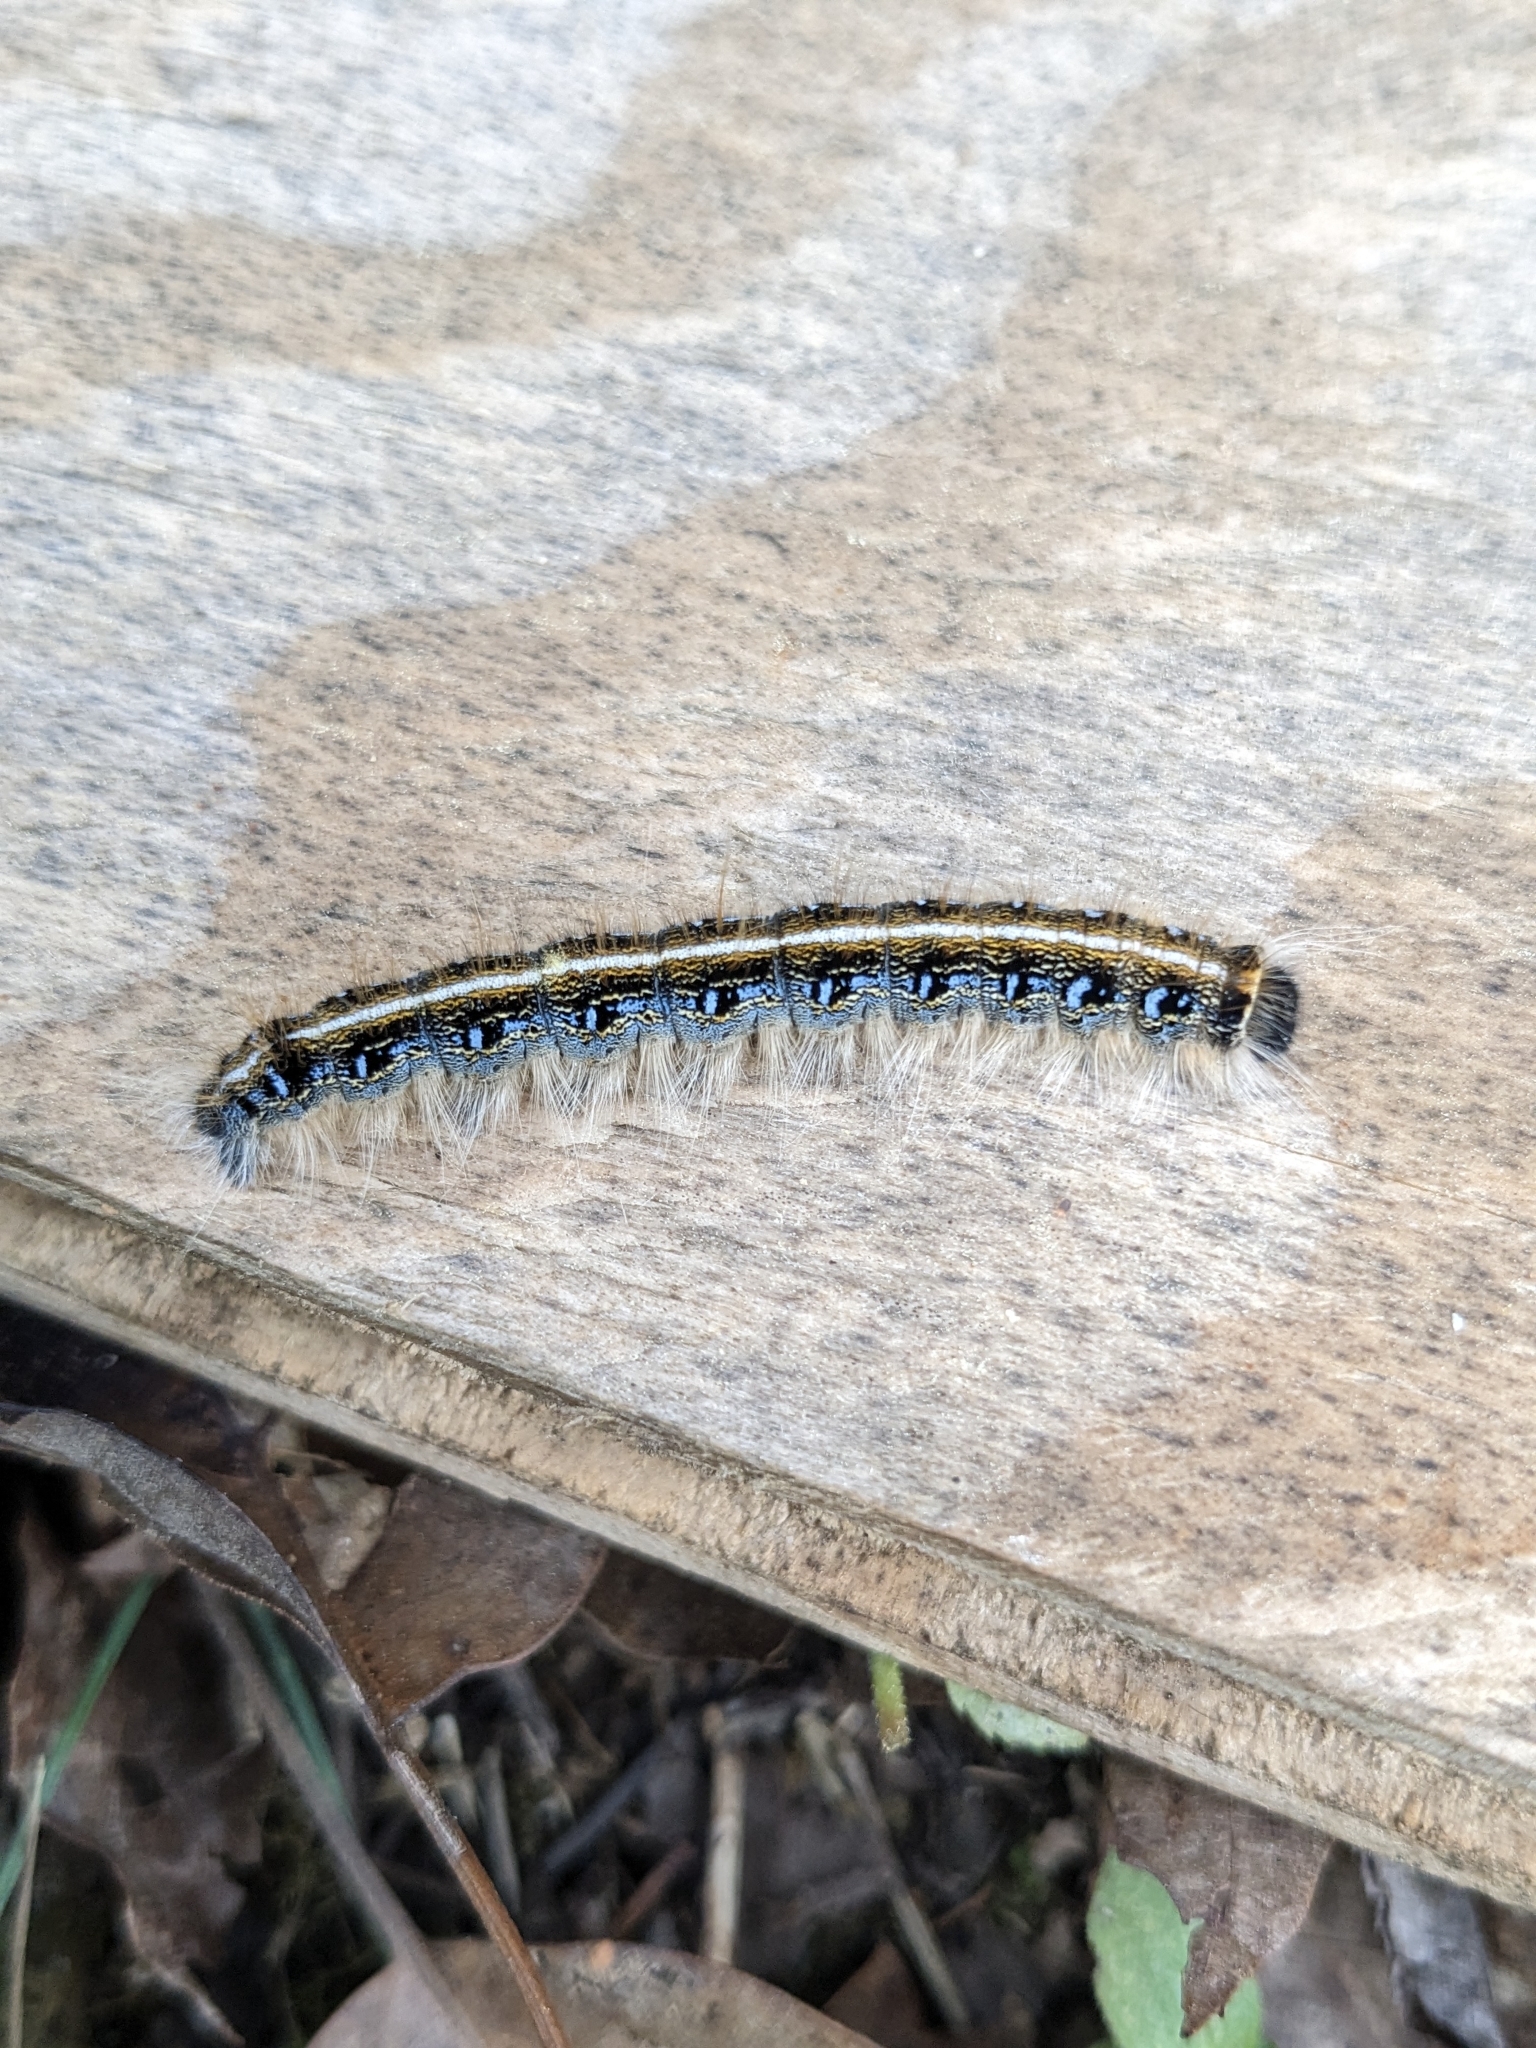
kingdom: Animalia
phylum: Arthropoda
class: Insecta
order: Lepidoptera
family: Lasiocampidae
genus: Malacosoma
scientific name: Malacosoma americana
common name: Eastern tent caterpillar moth
